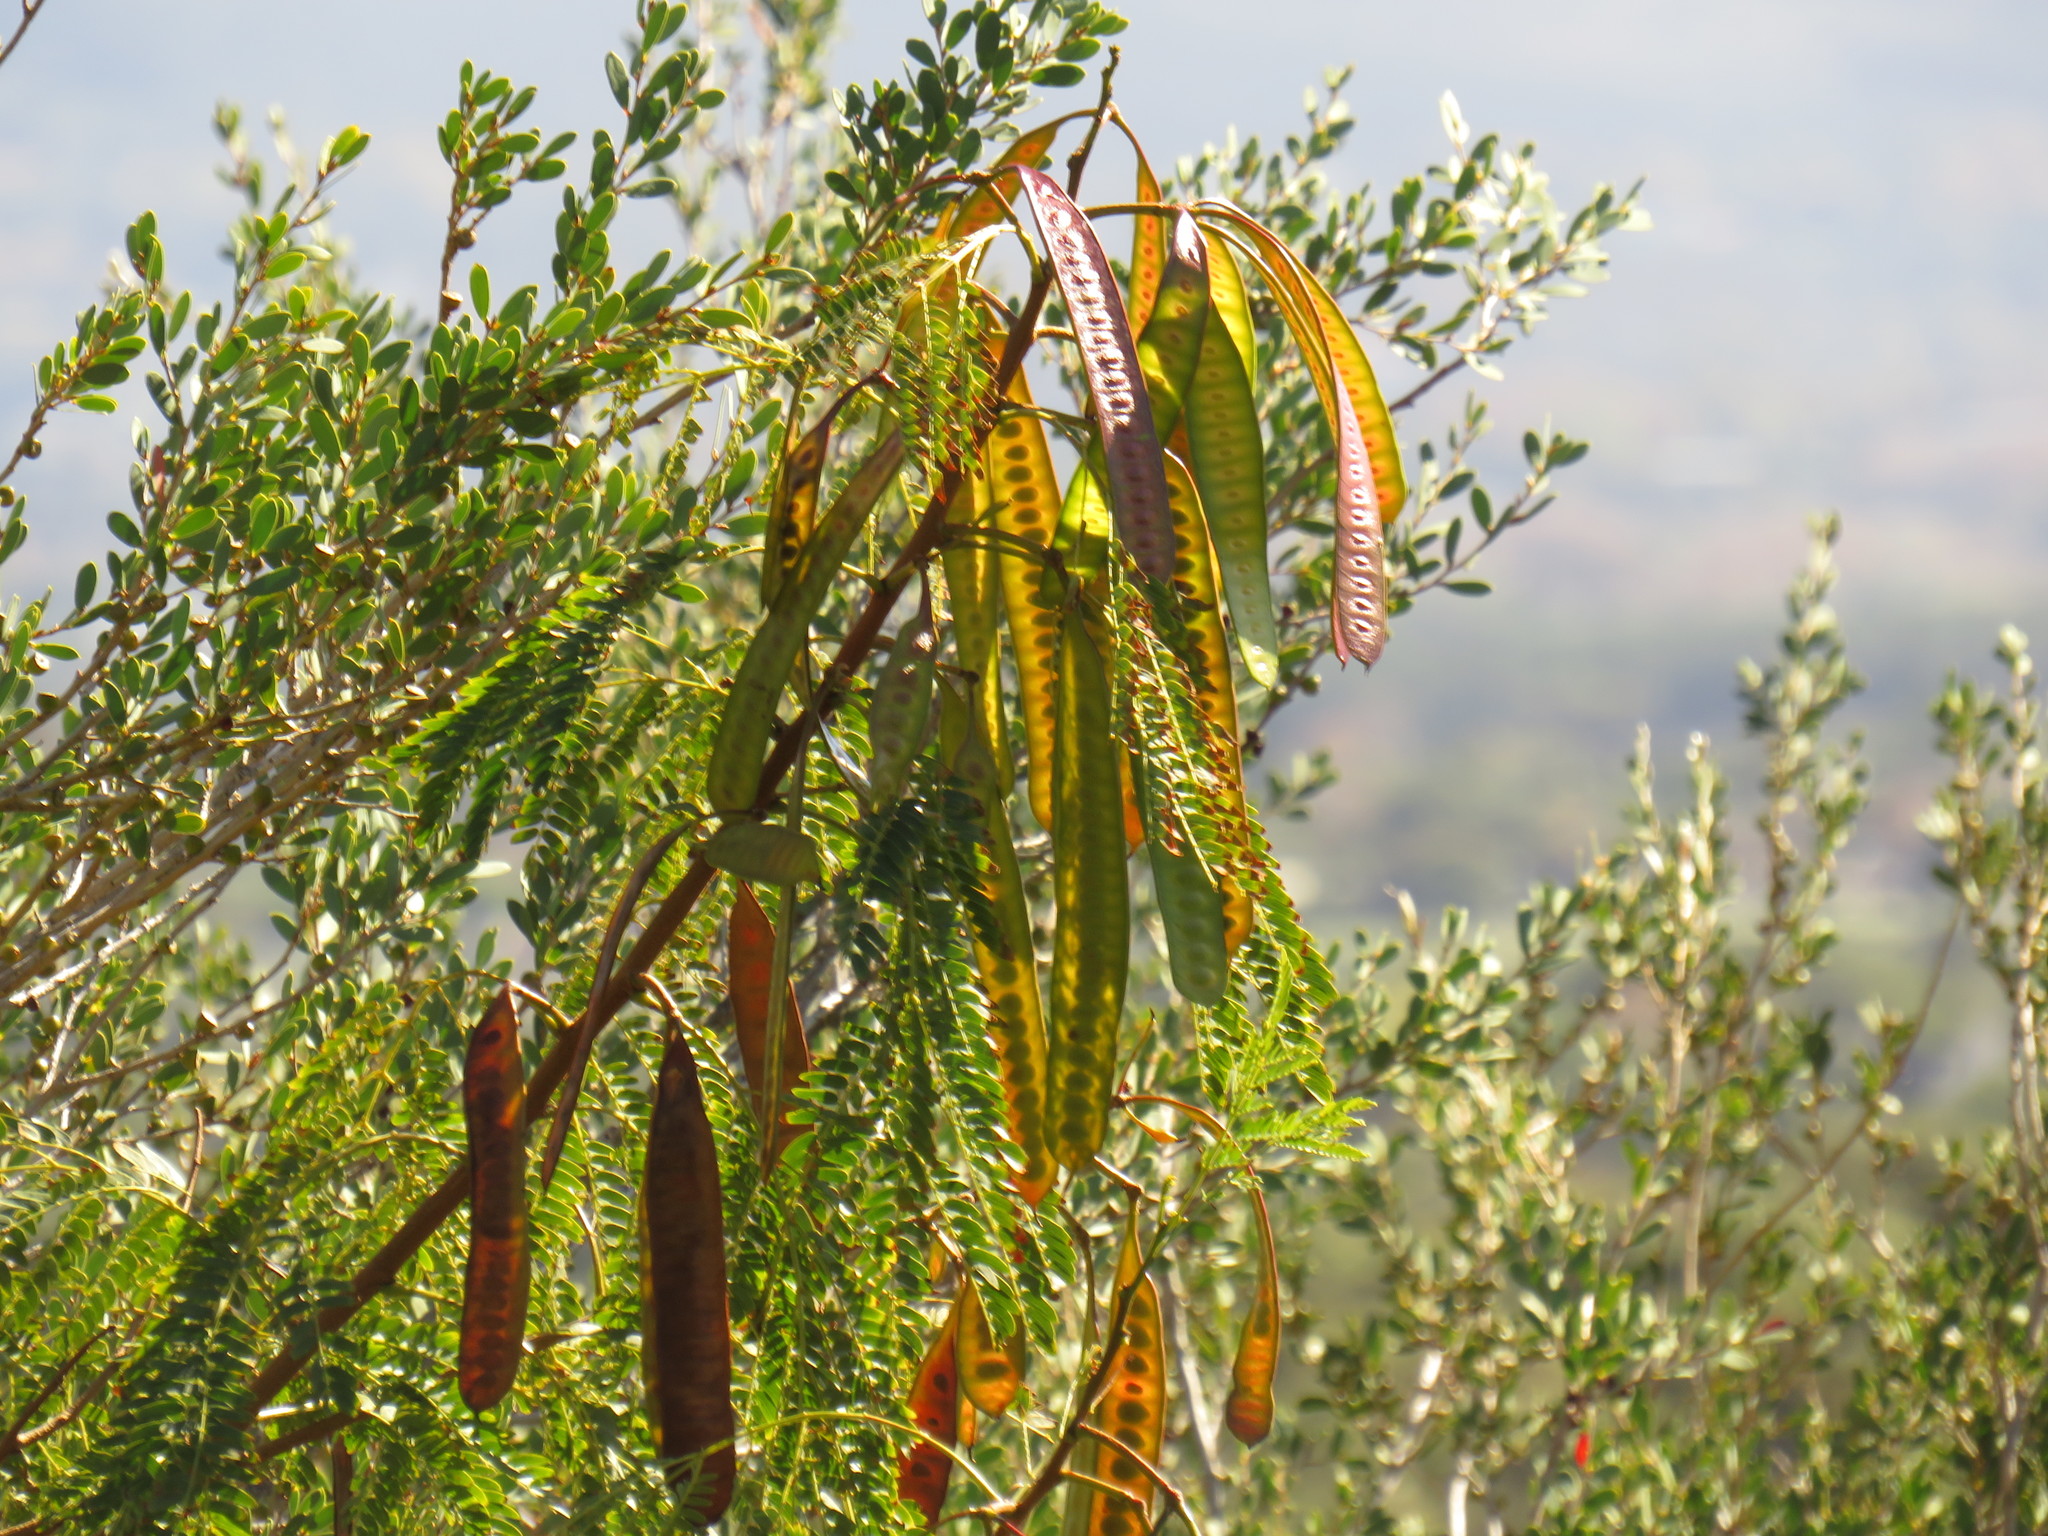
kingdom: Plantae
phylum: Tracheophyta
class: Magnoliopsida
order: Fabales
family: Fabaceae
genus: Leucaena
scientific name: Leucaena leucocephala
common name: White leadtree
